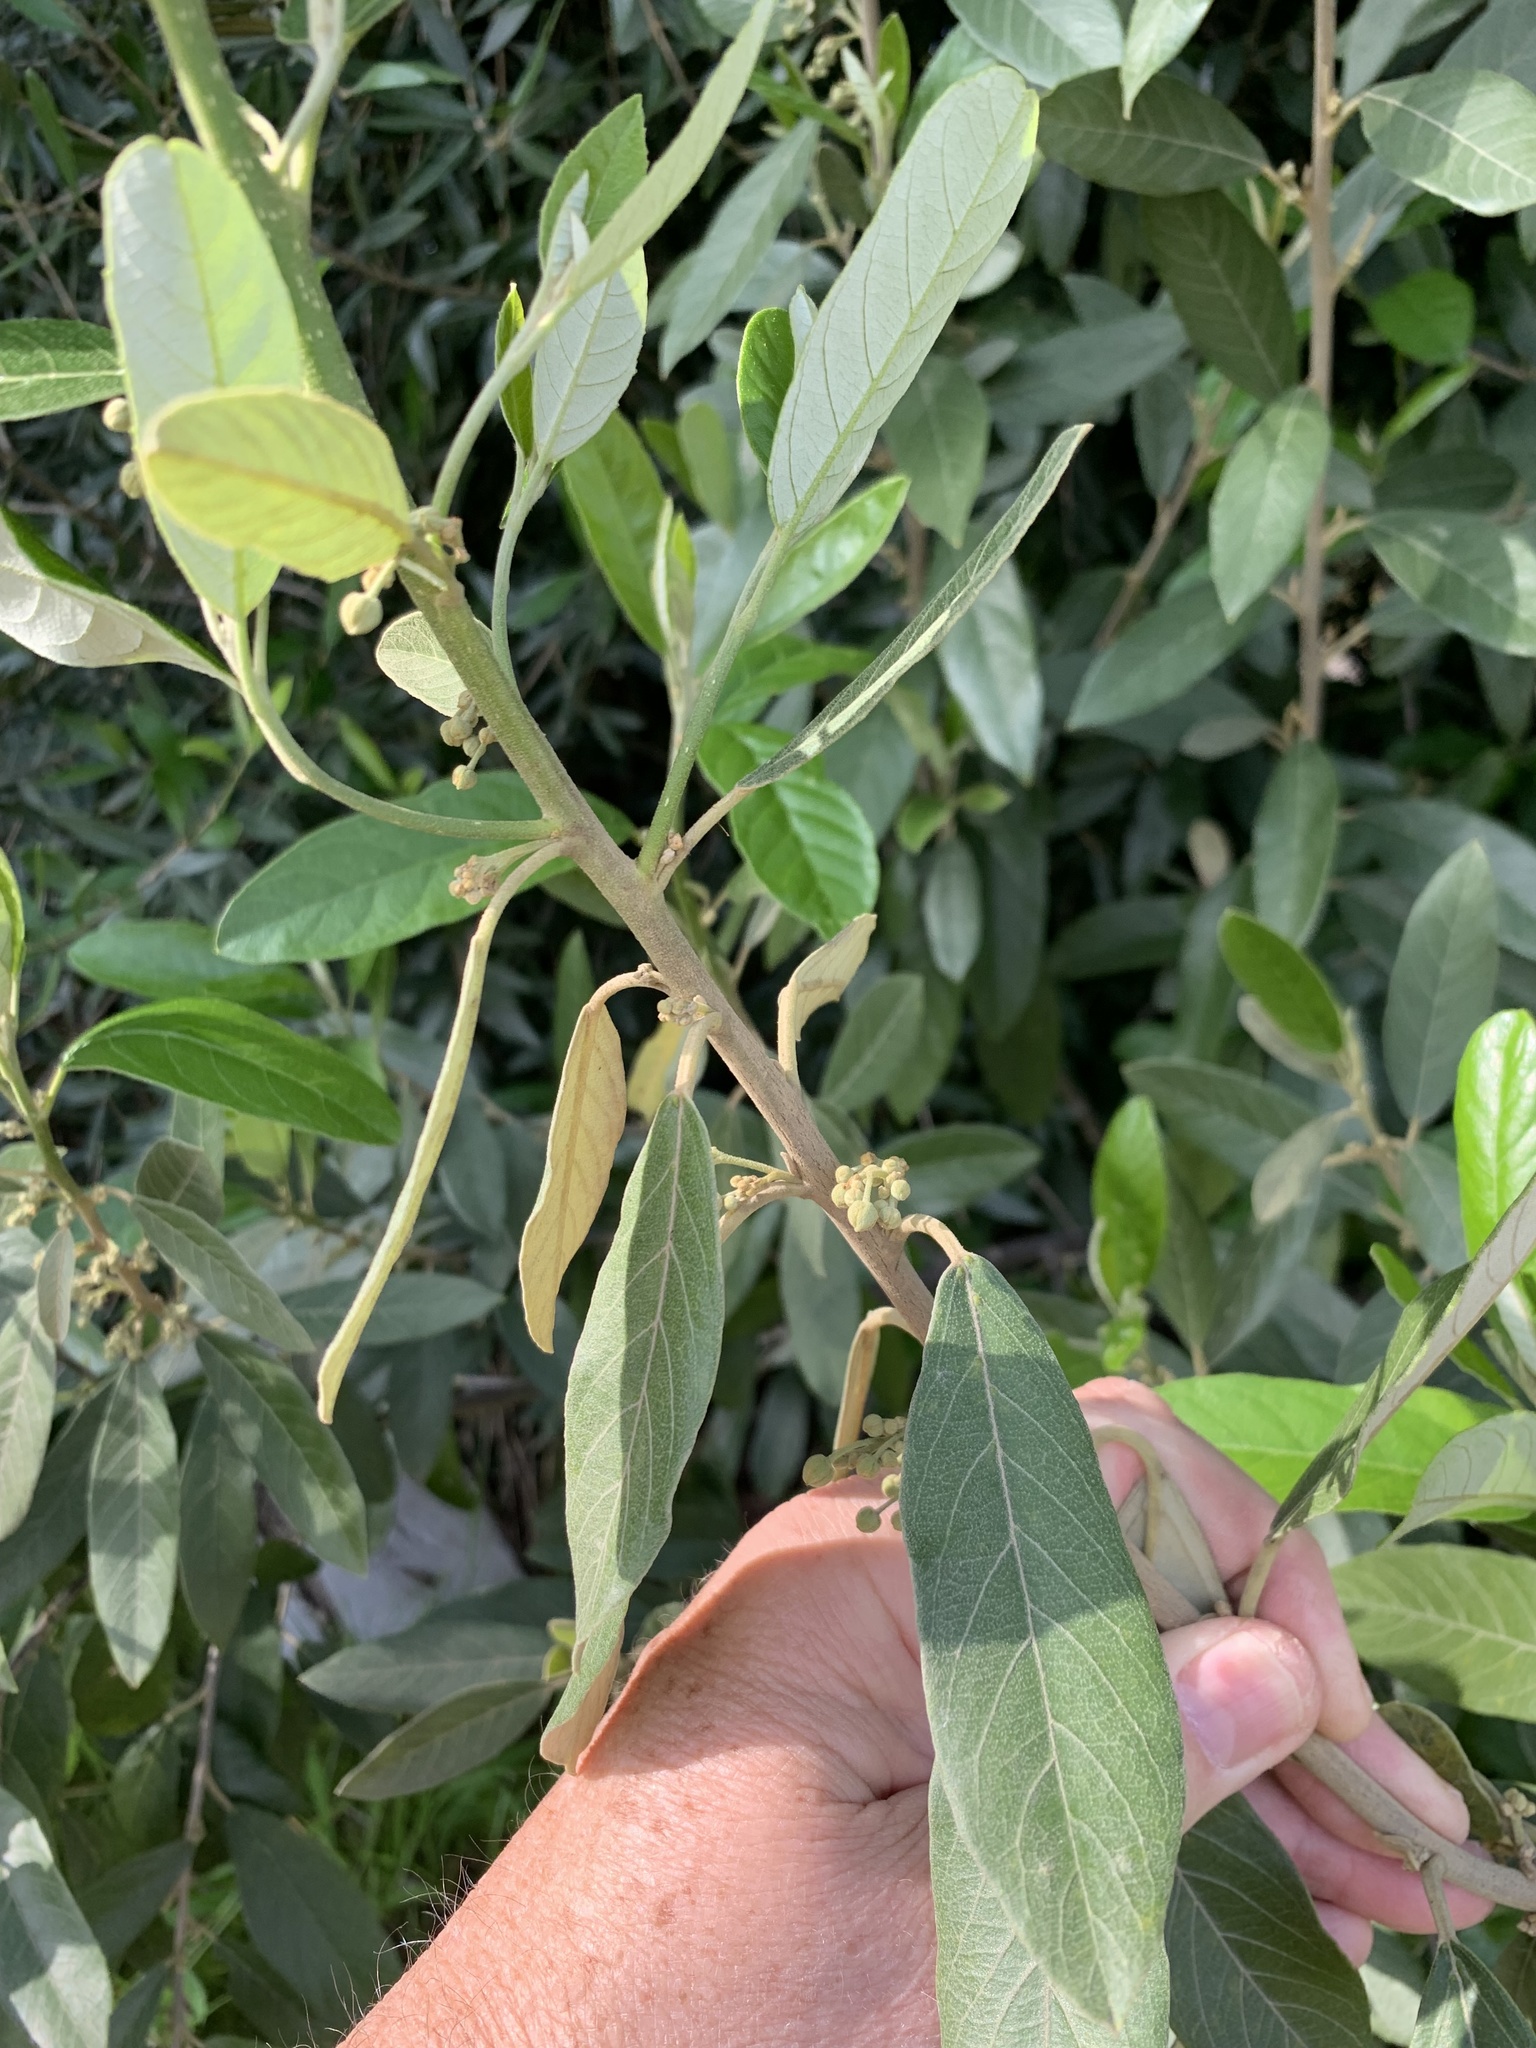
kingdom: Plantae
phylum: Tracheophyta
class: Magnoliopsida
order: Malpighiales
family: Achariaceae
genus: Kiggelaria
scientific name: Kiggelaria africana
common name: Wild peach
